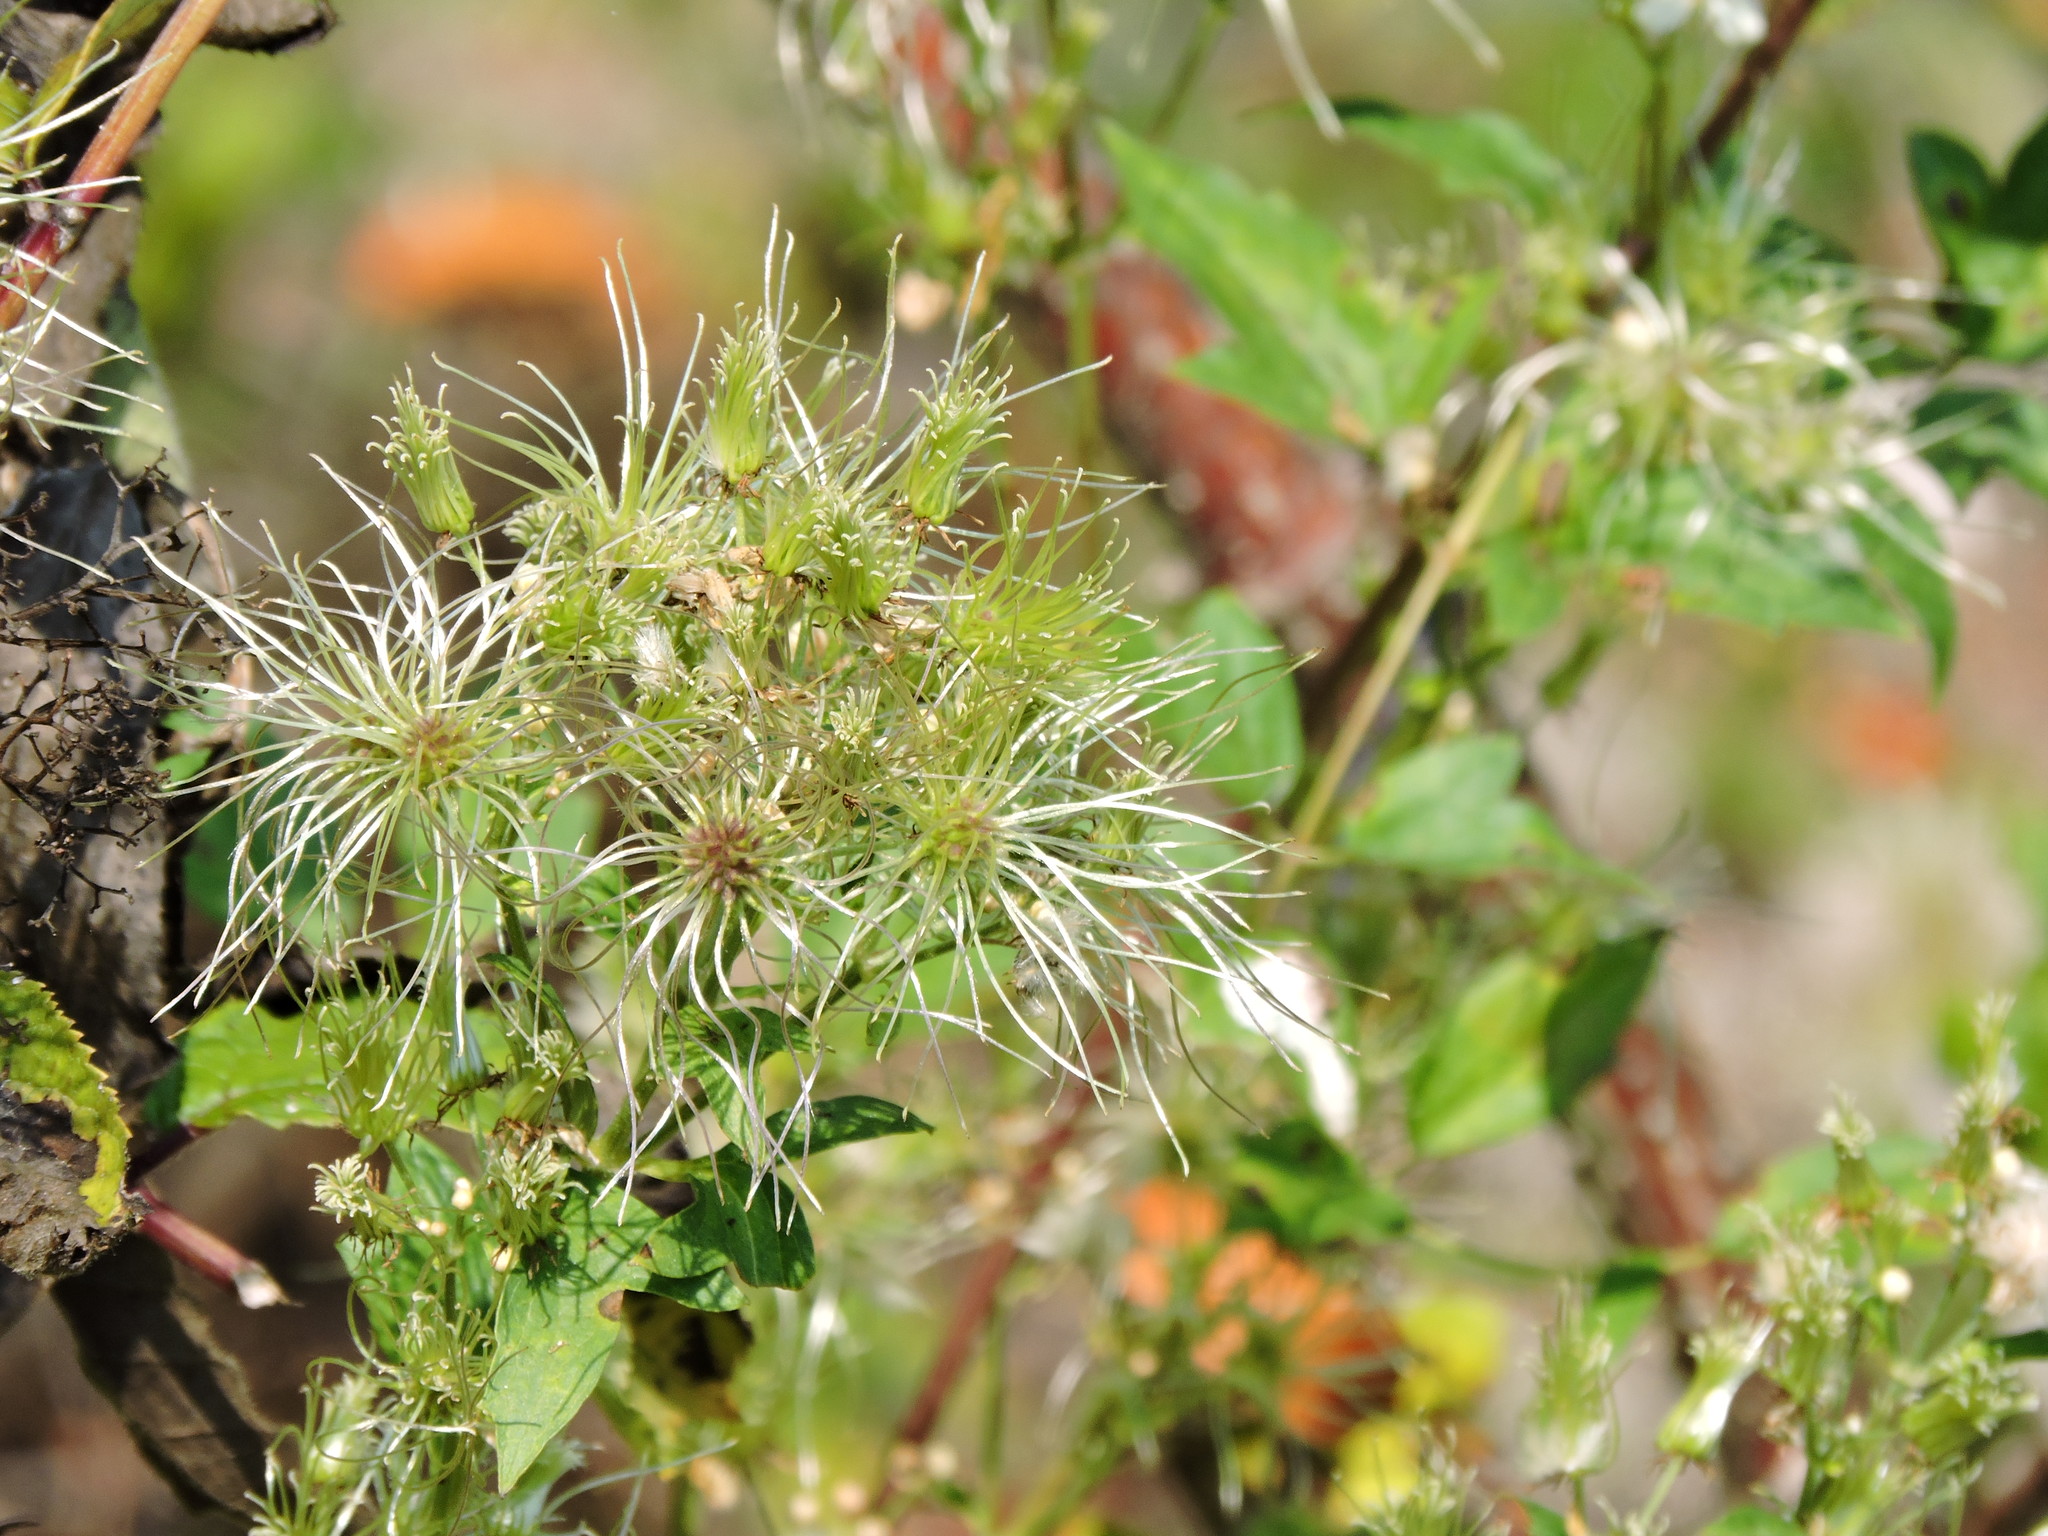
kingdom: Plantae
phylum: Tracheophyta
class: Magnoliopsida
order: Ranunculales
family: Ranunculaceae
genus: Clematis
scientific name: Clematis lasiantha
